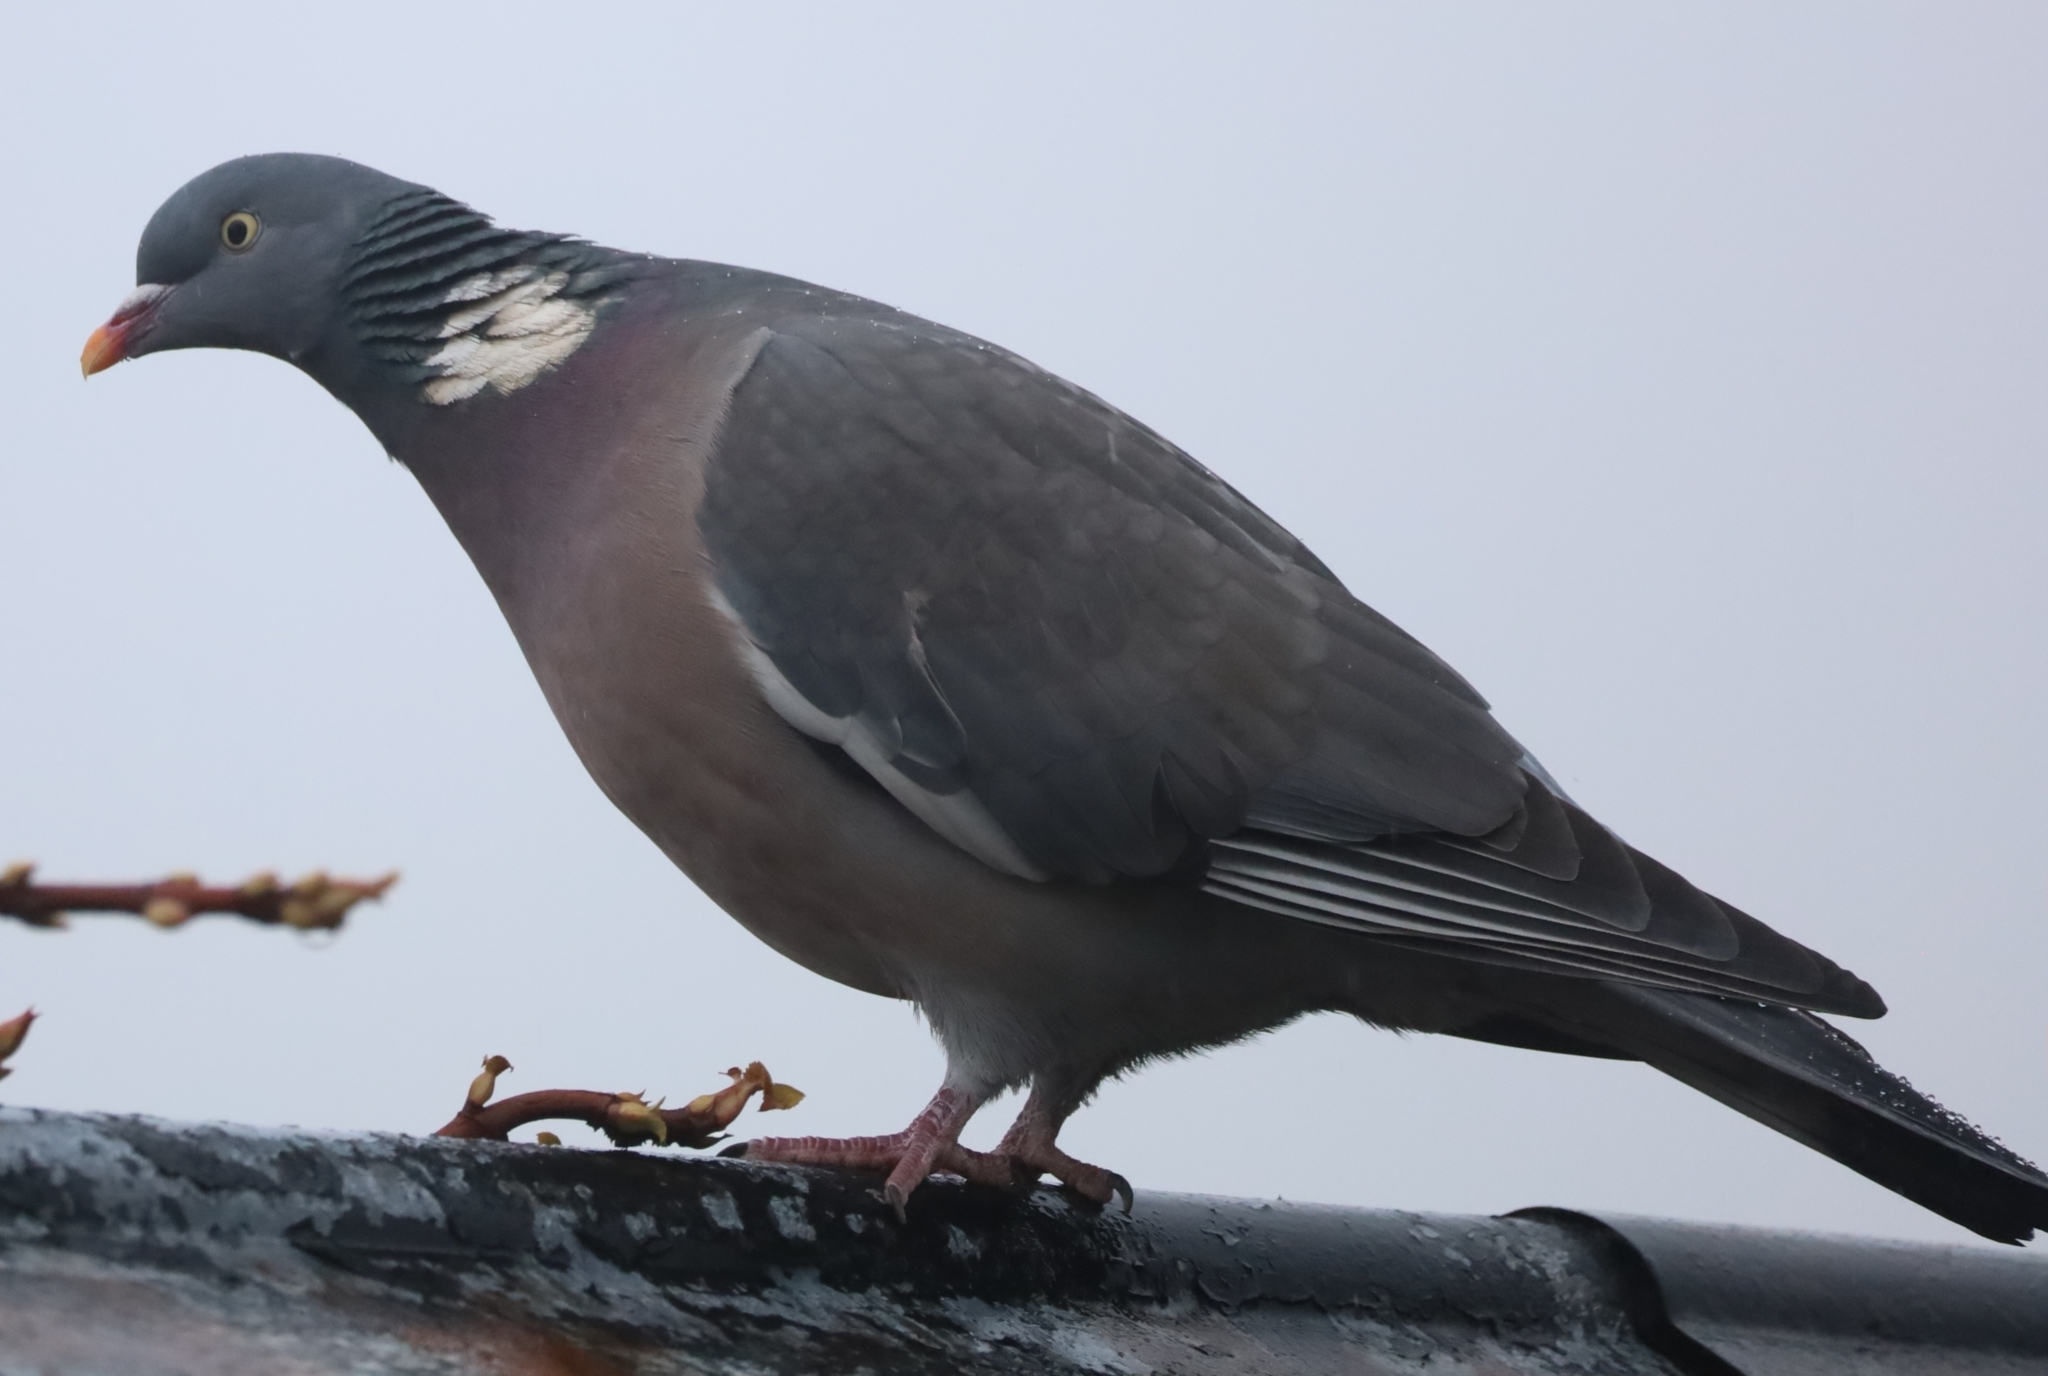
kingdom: Animalia
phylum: Chordata
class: Aves
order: Columbiformes
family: Columbidae
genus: Columba
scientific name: Columba palumbus
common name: Common wood pigeon
